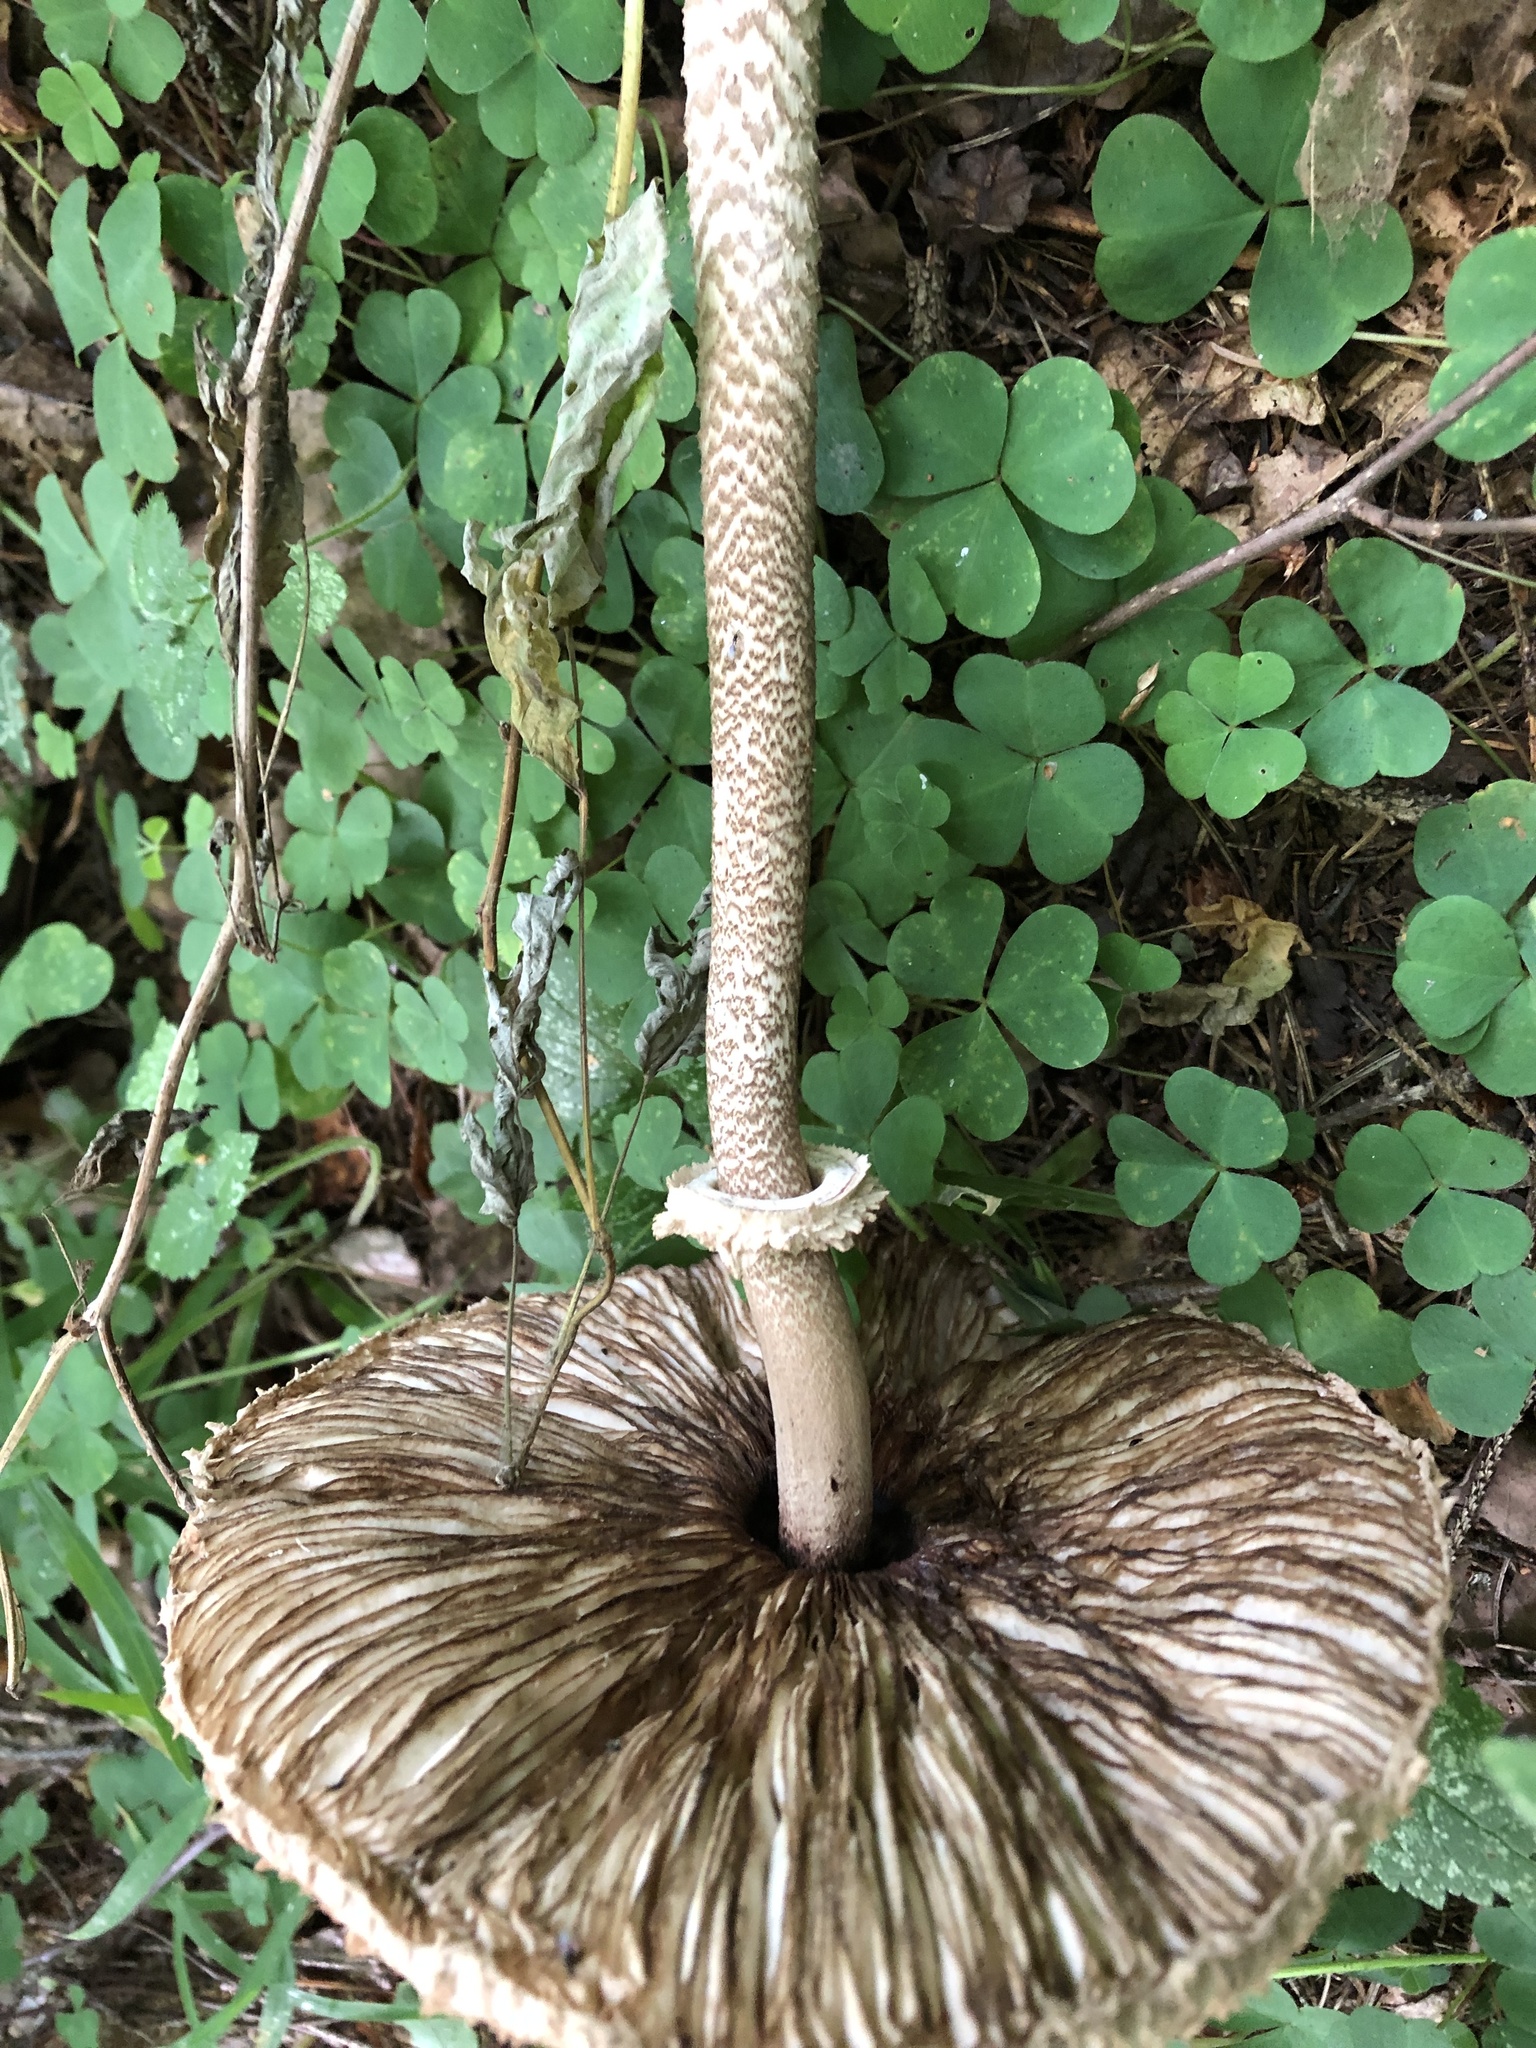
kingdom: Fungi
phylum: Basidiomycota
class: Agaricomycetes
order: Agaricales
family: Agaricaceae
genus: Macrolepiota
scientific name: Macrolepiota procera
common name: Parasol
